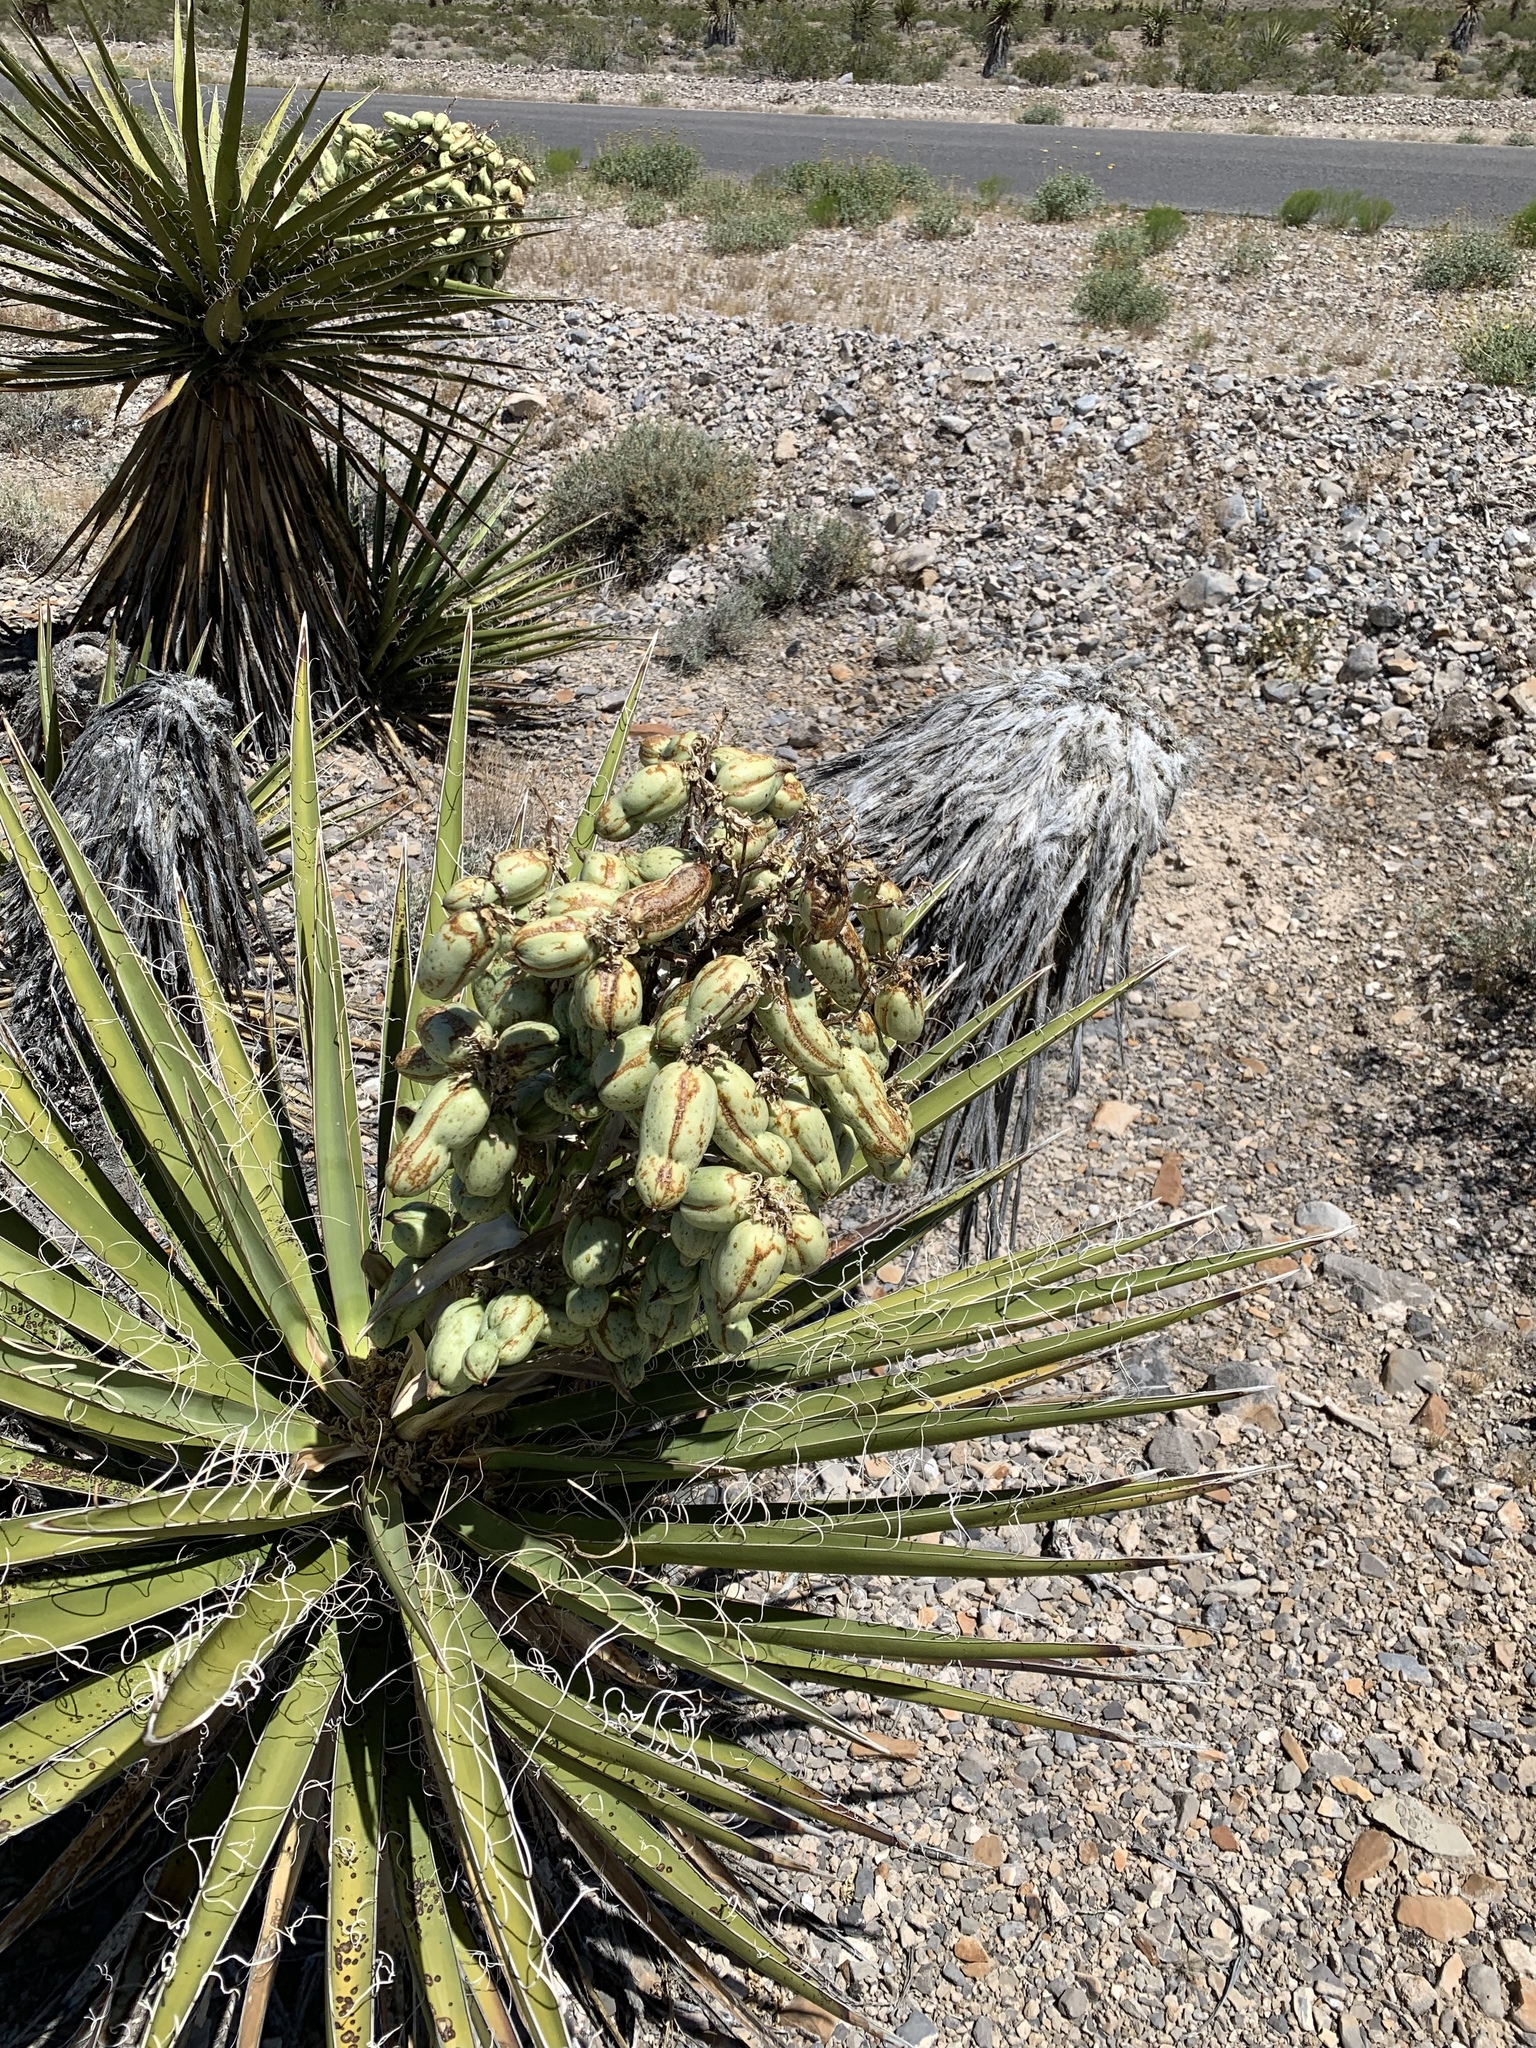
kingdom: Plantae
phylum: Tracheophyta
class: Liliopsida
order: Asparagales
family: Asparagaceae
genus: Yucca
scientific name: Yucca schidigera
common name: Mojave yucca
